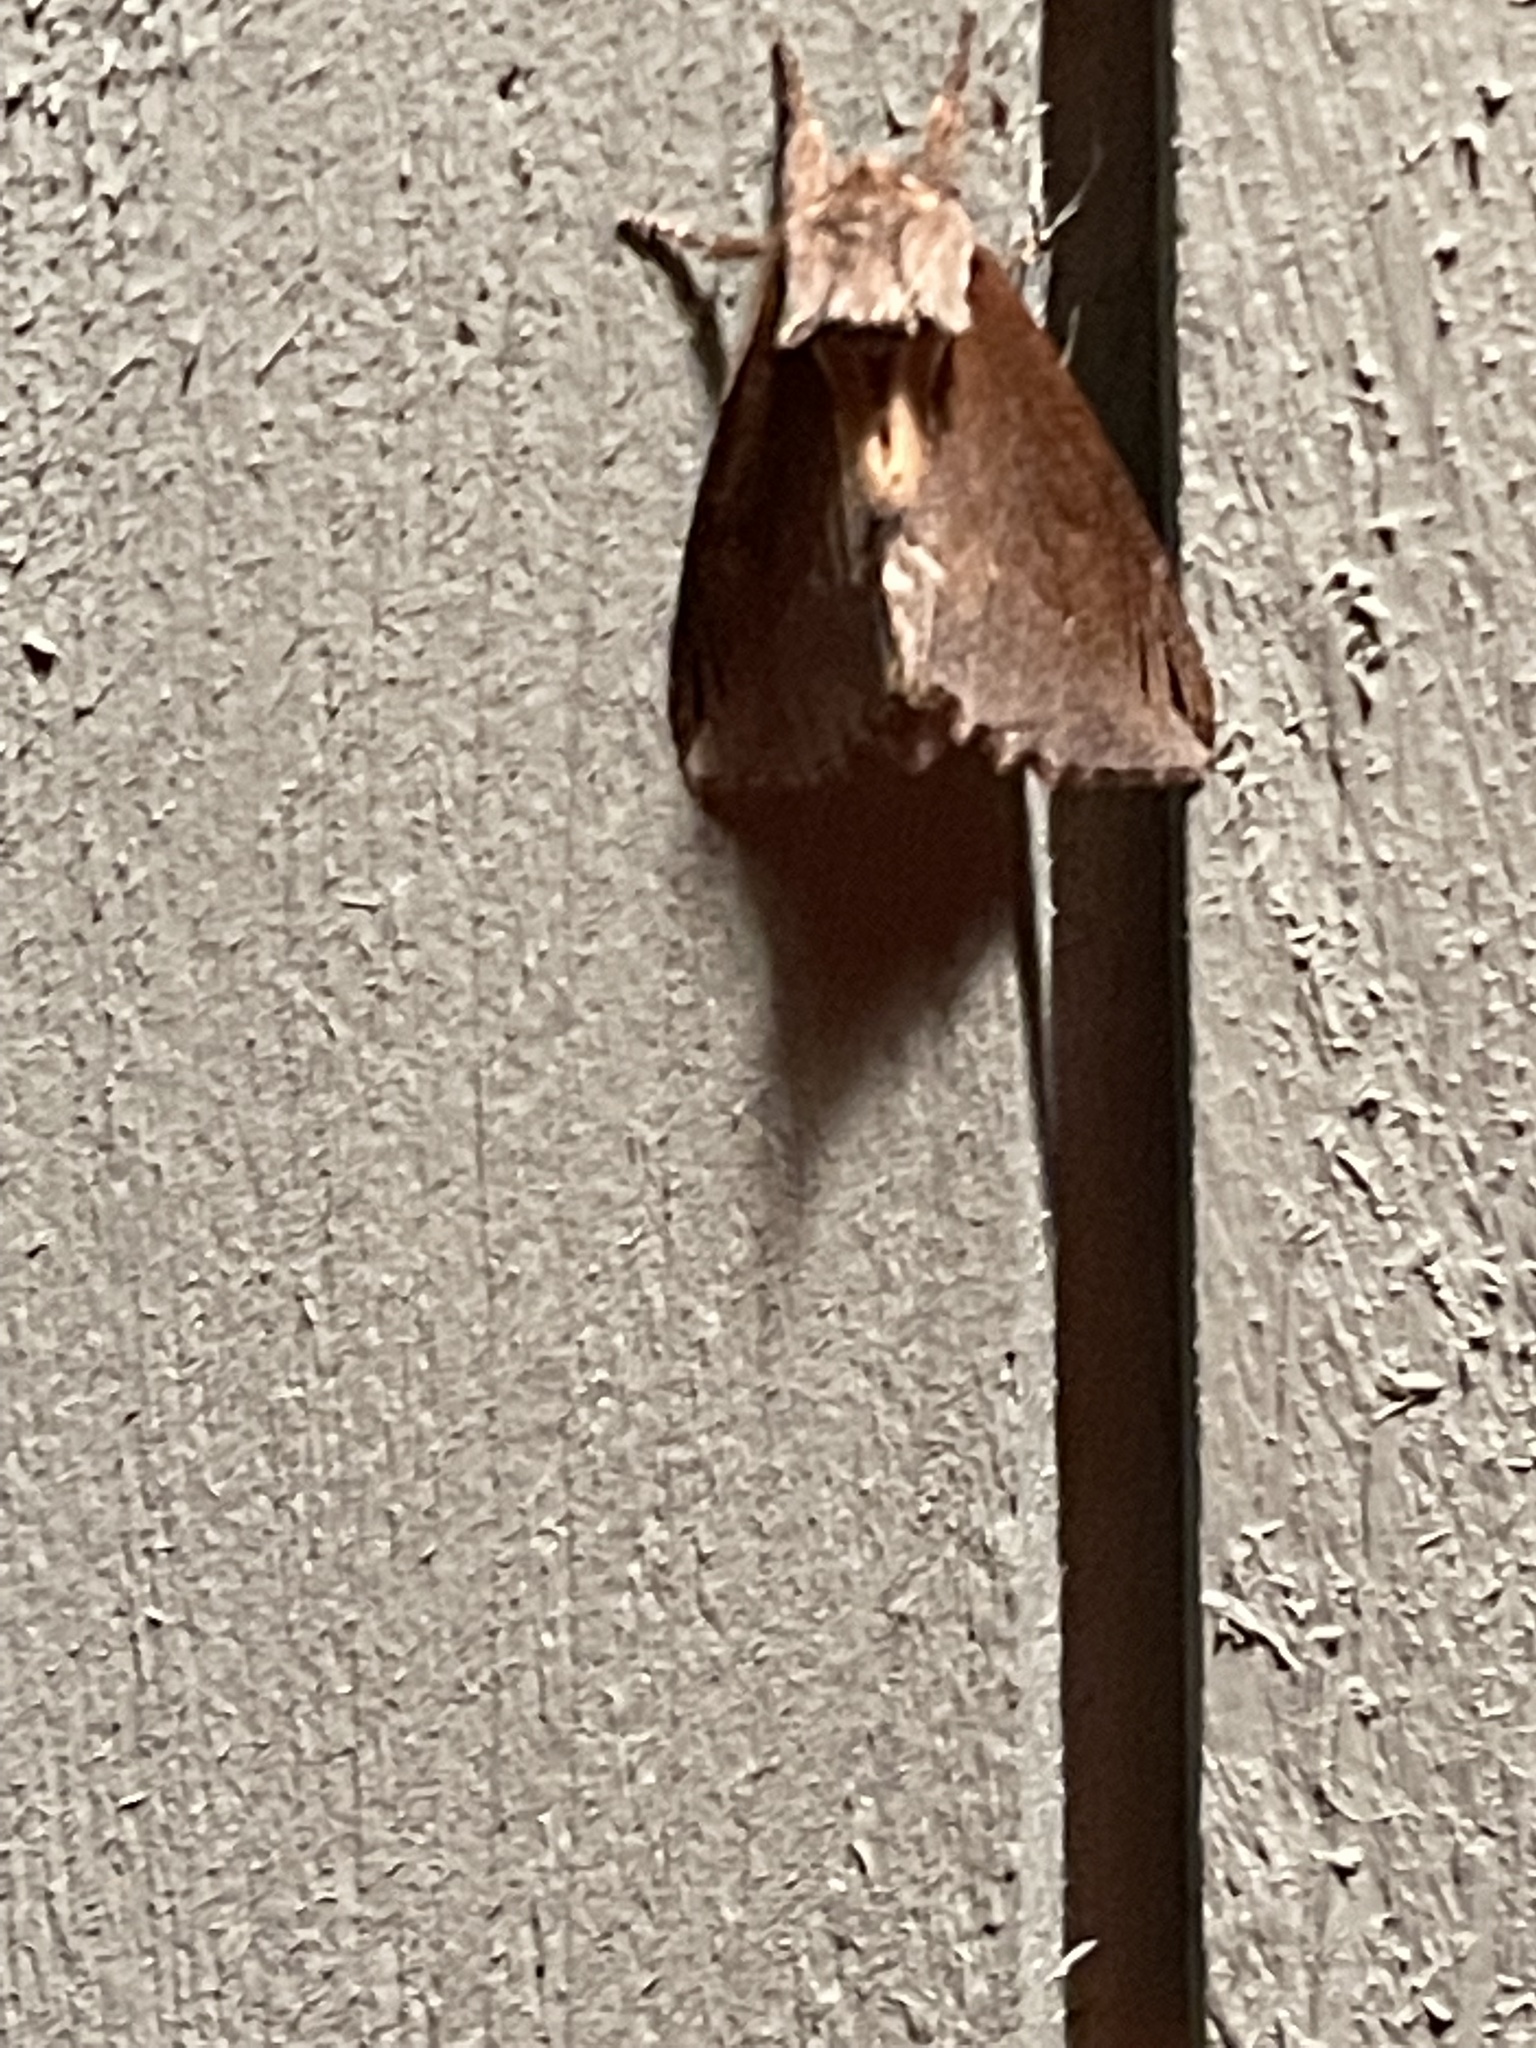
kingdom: Animalia
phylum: Arthropoda
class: Insecta
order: Lepidoptera
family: Notodontidae
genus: Pheosidea
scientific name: Pheosidea elegans
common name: Elegant prominent
